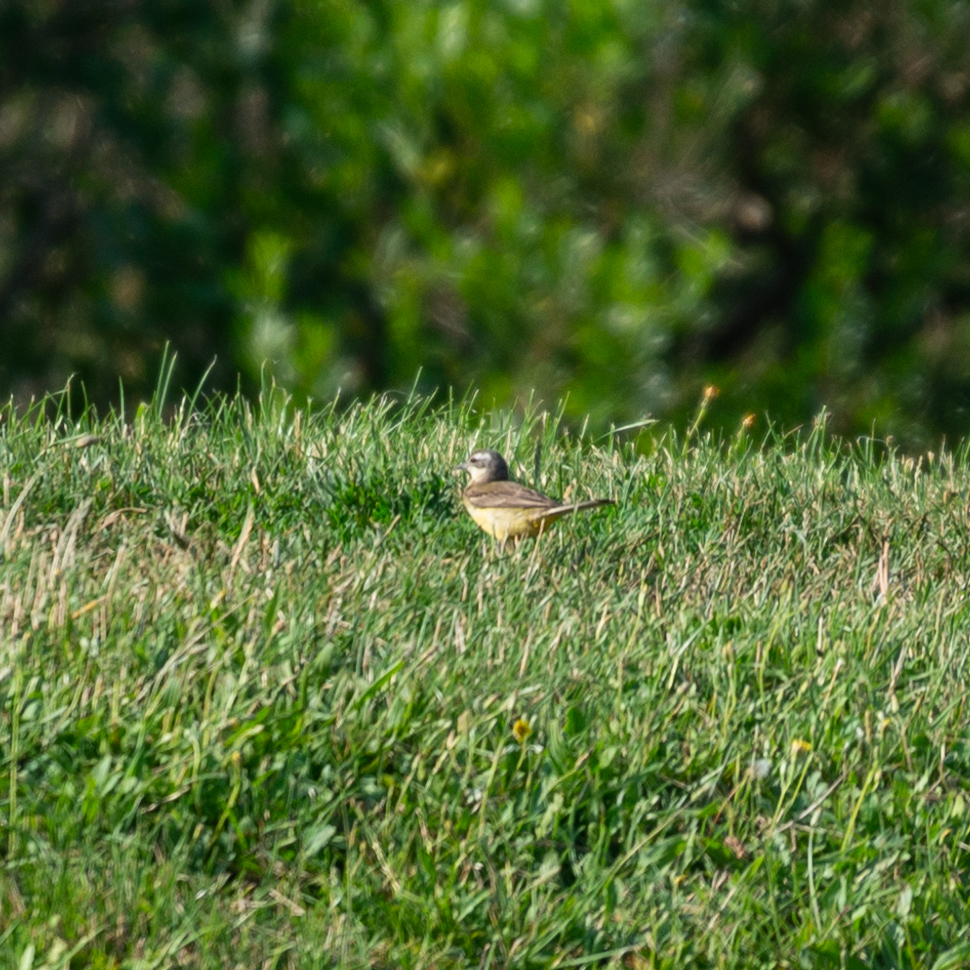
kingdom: Animalia
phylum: Chordata
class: Aves
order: Passeriformes
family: Motacillidae
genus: Motacilla
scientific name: Motacilla flava
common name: Western yellow wagtail
